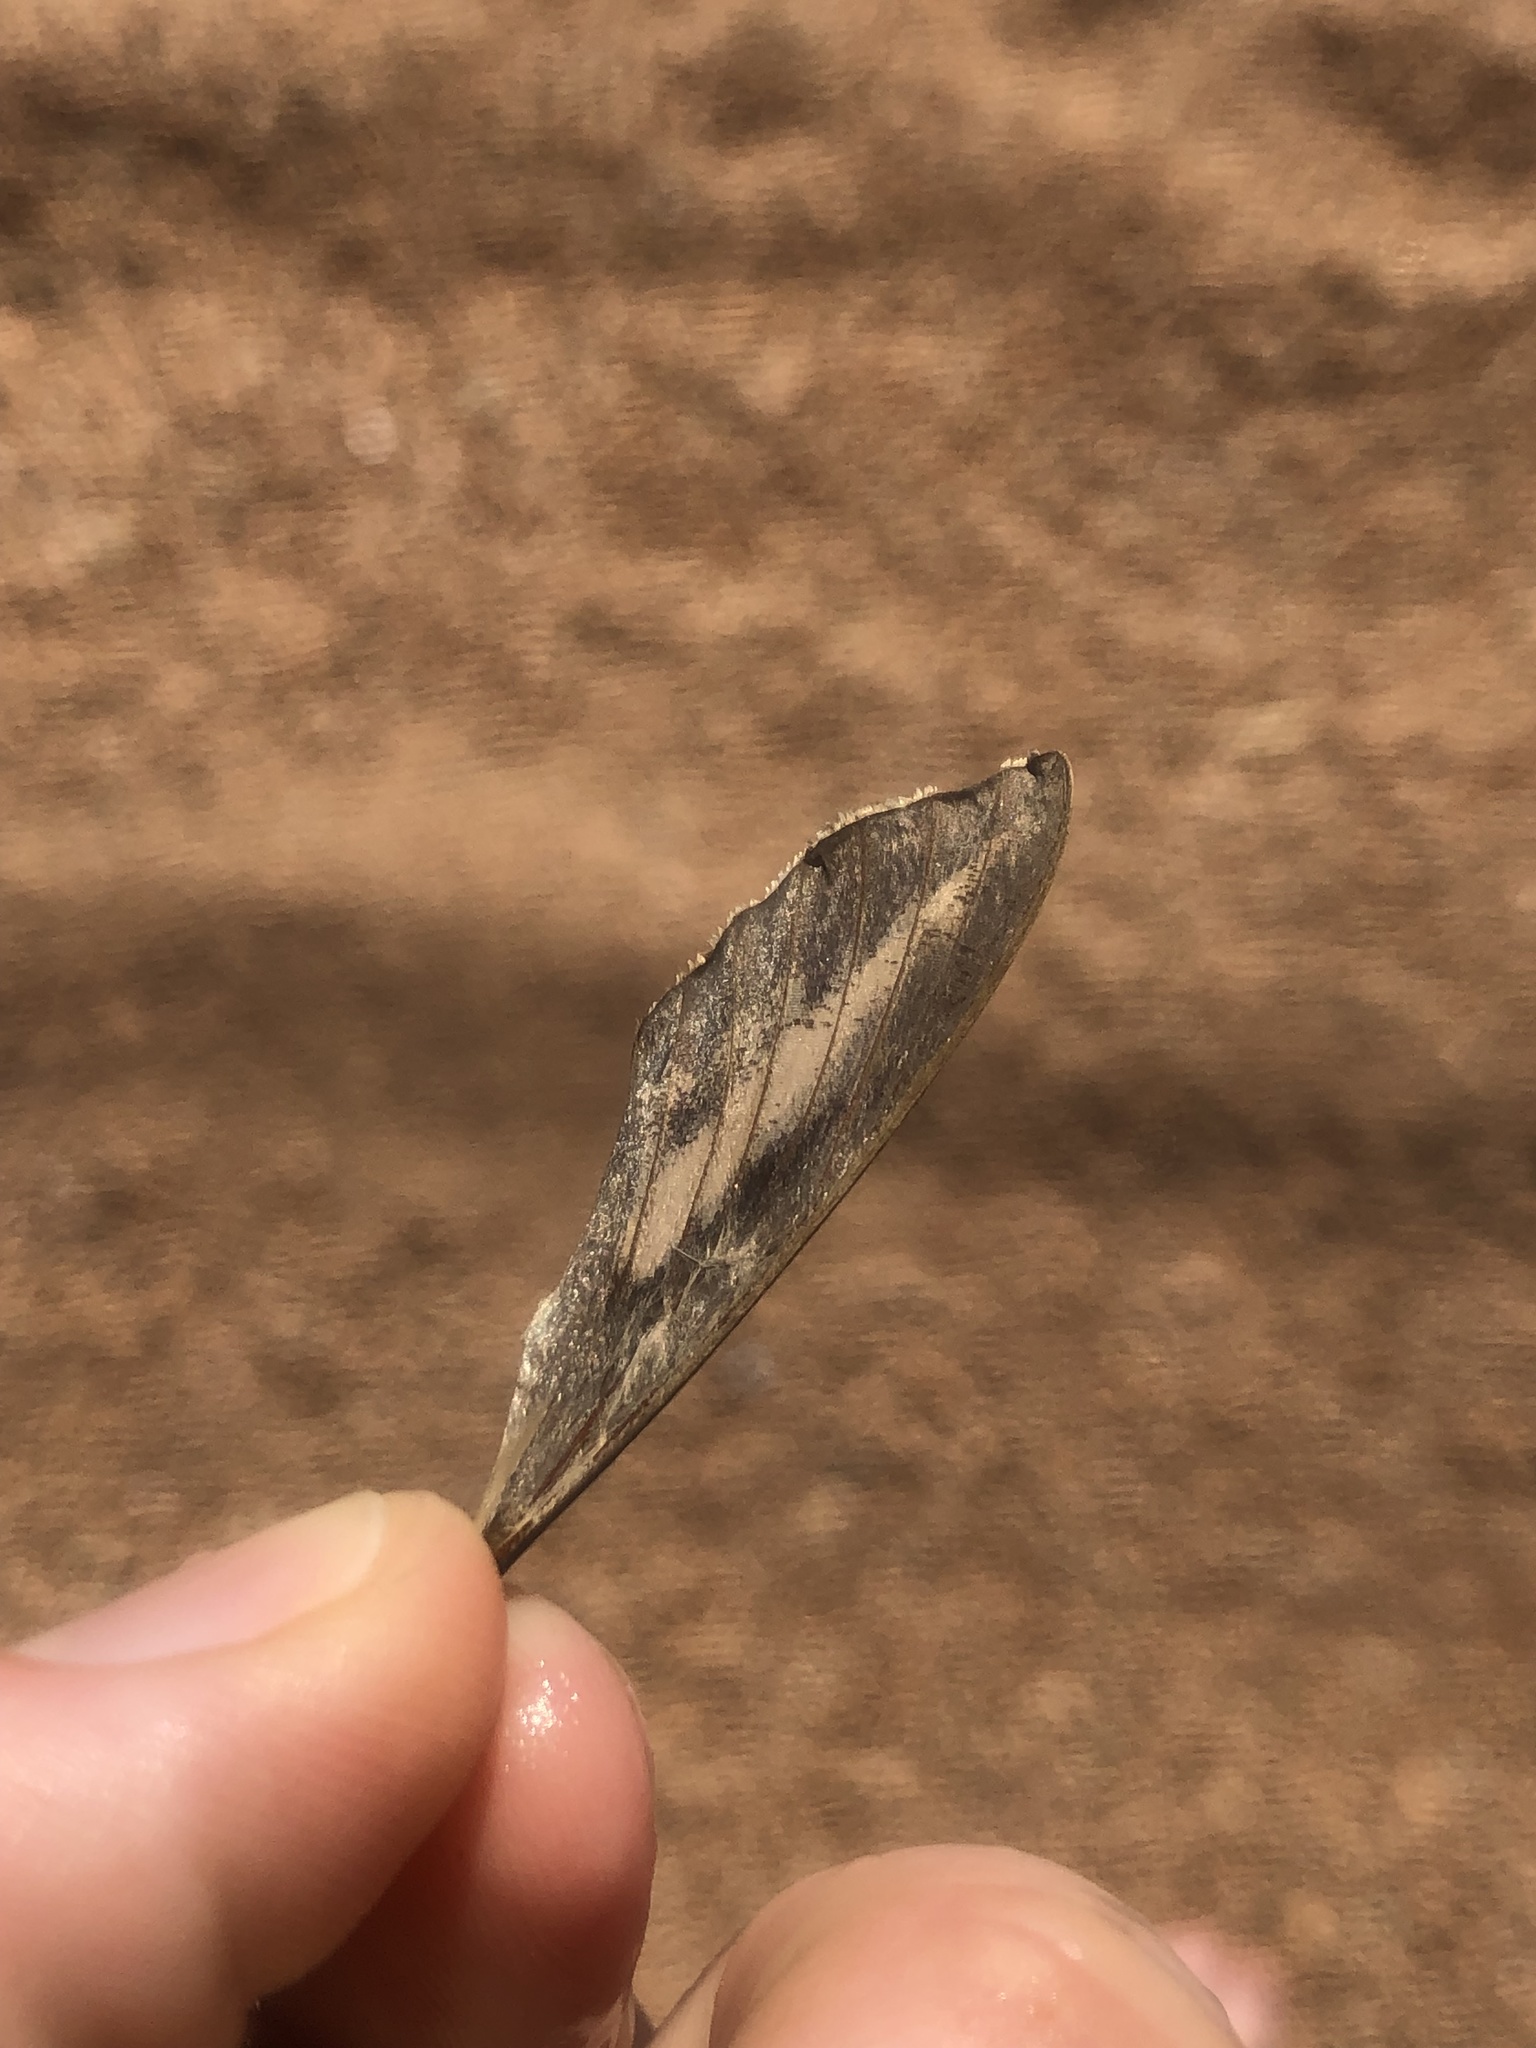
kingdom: Animalia
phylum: Arthropoda
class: Insecta
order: Lepidoptera
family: Sphingidae
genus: Hyles
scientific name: Hyles lineata
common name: White-lined sphinx
